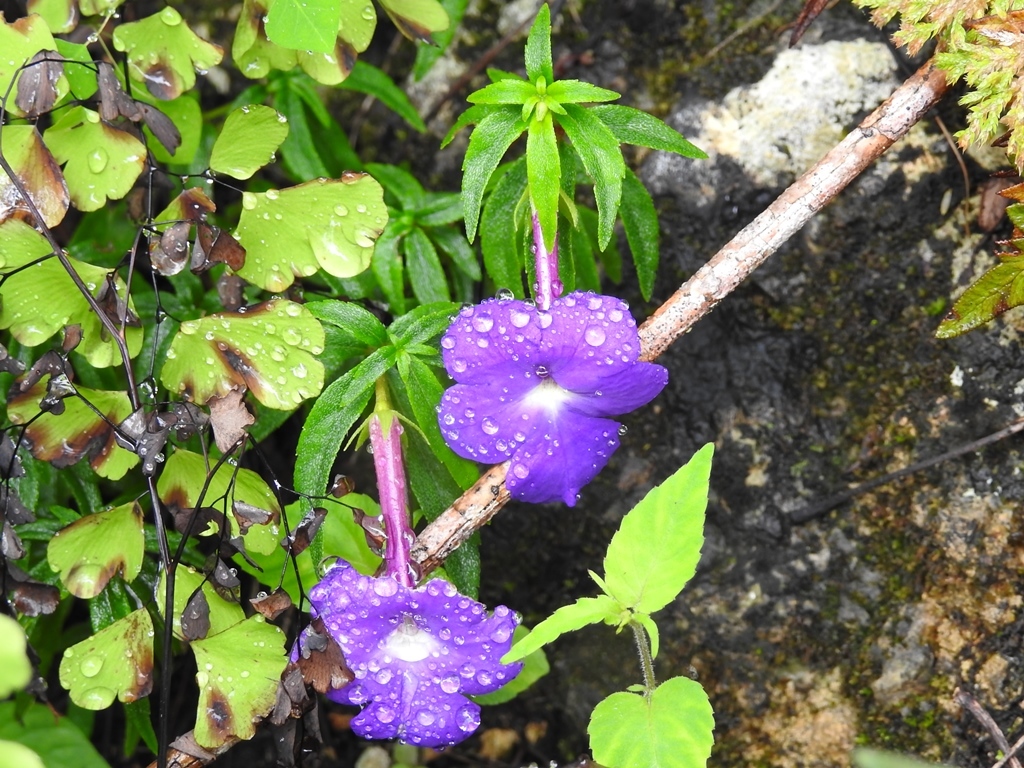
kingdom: Plantae
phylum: Tracheophyta
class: Magnoliopsida
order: Lamiales
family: Gesneriaceae
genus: Achimenes
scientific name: Achimenes cettoana
